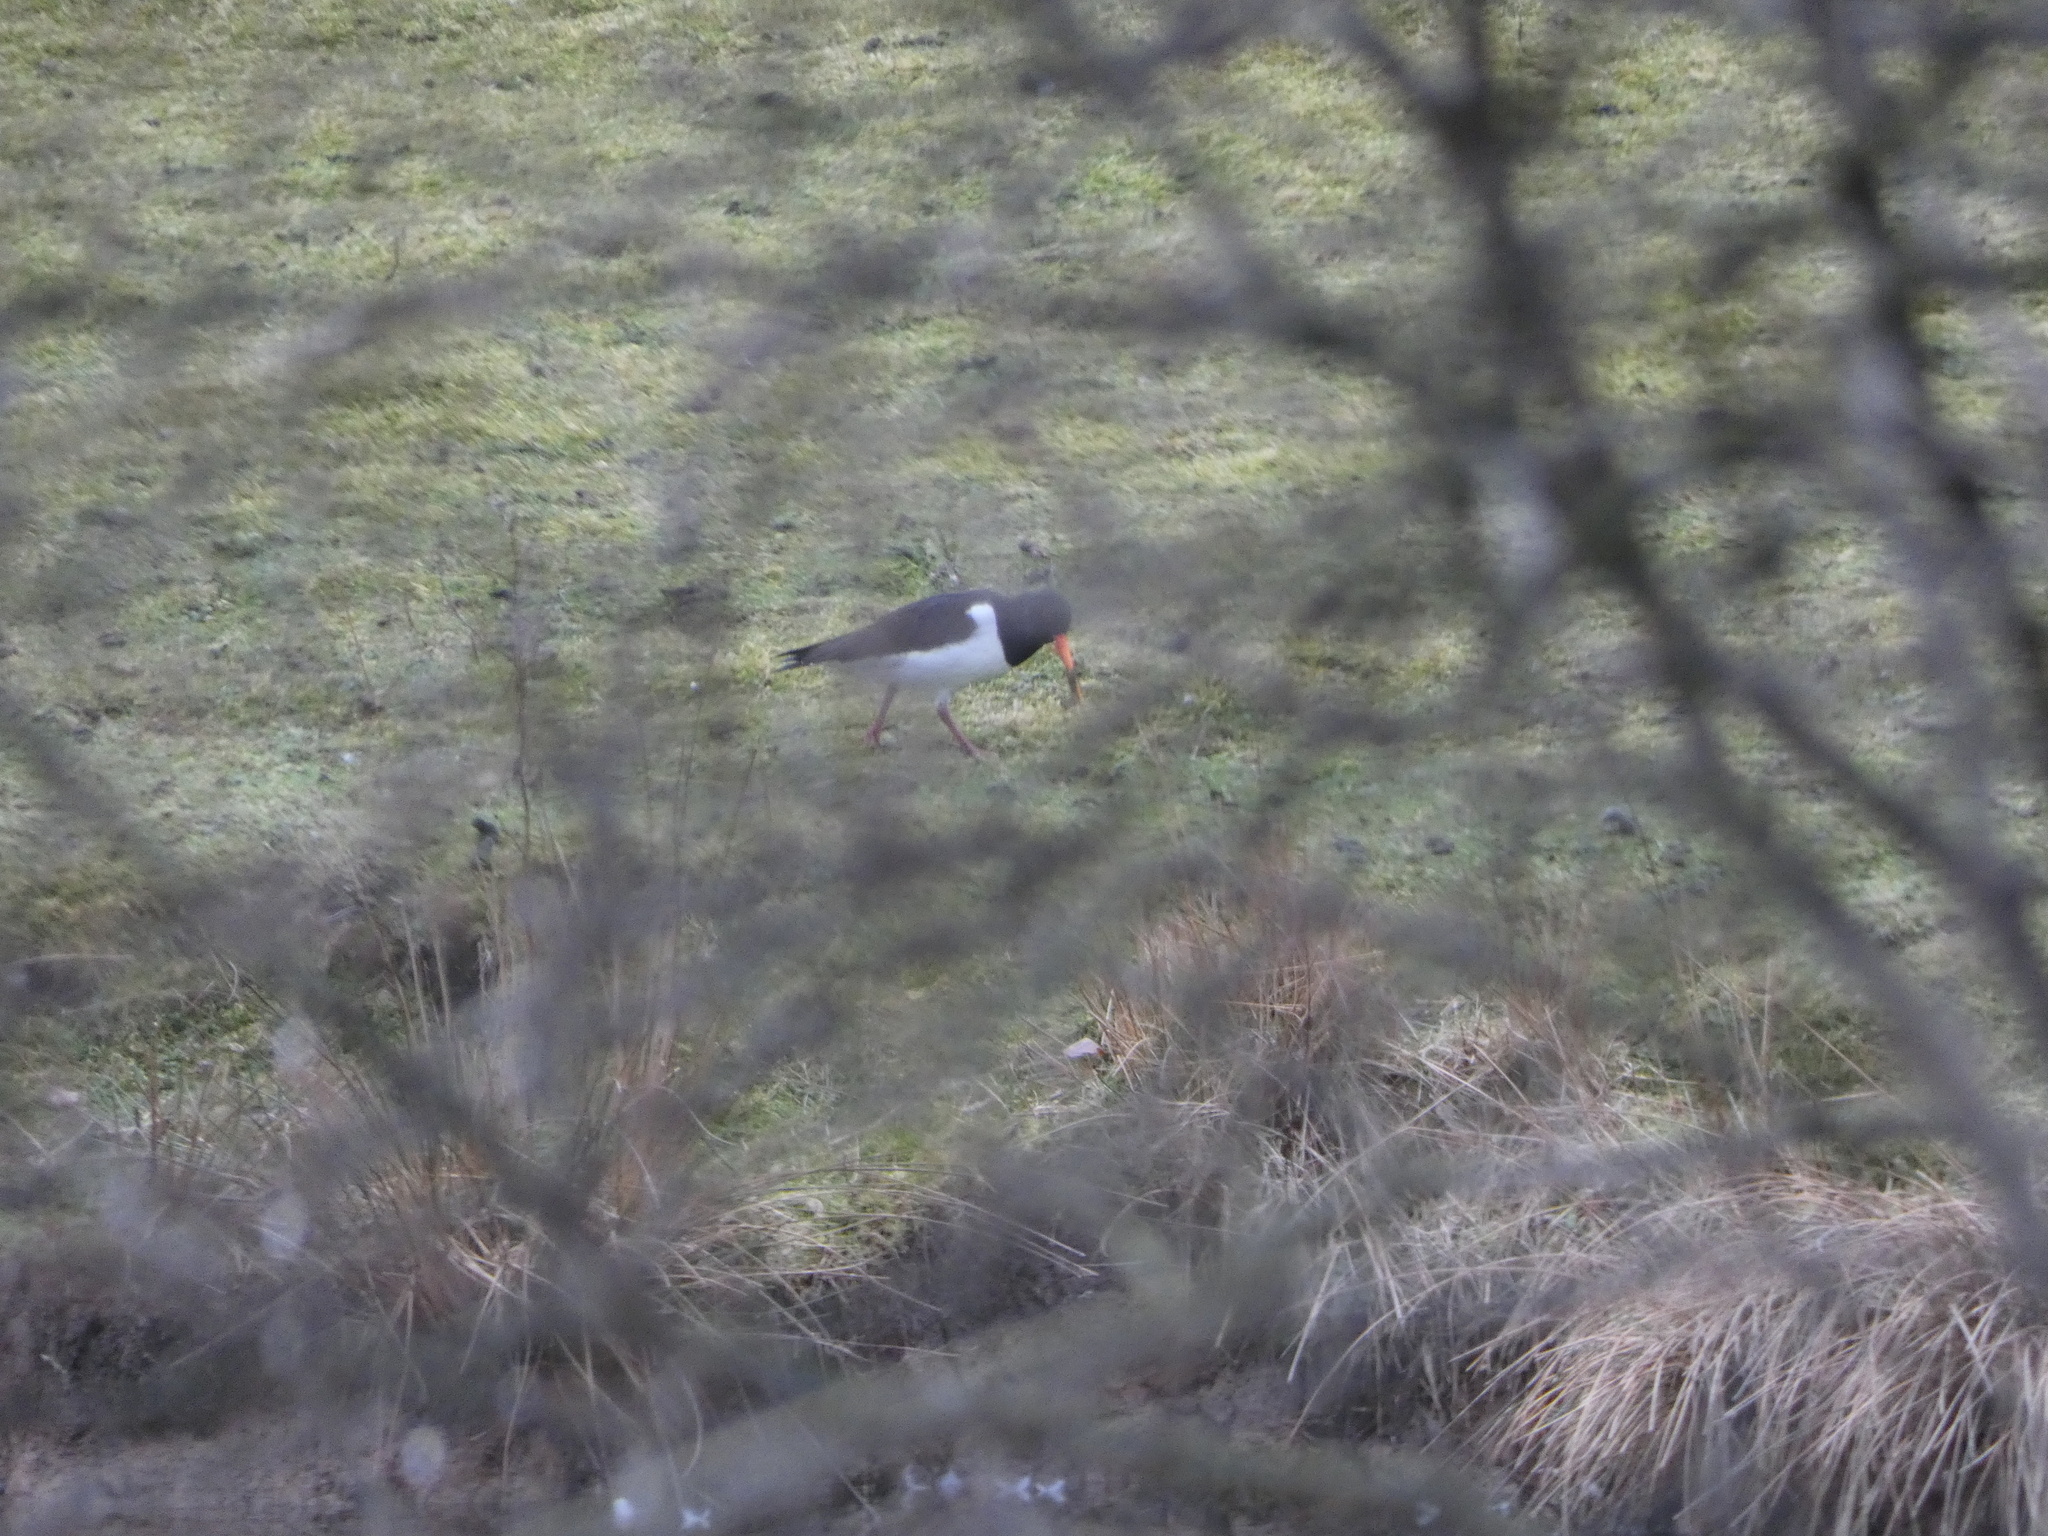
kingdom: Animalia
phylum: Chordata
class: Aves
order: Charadriiformes
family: Haematopodidae
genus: Haematopus
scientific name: Haematopus ostralegus
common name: Eurasian oystercatcher
